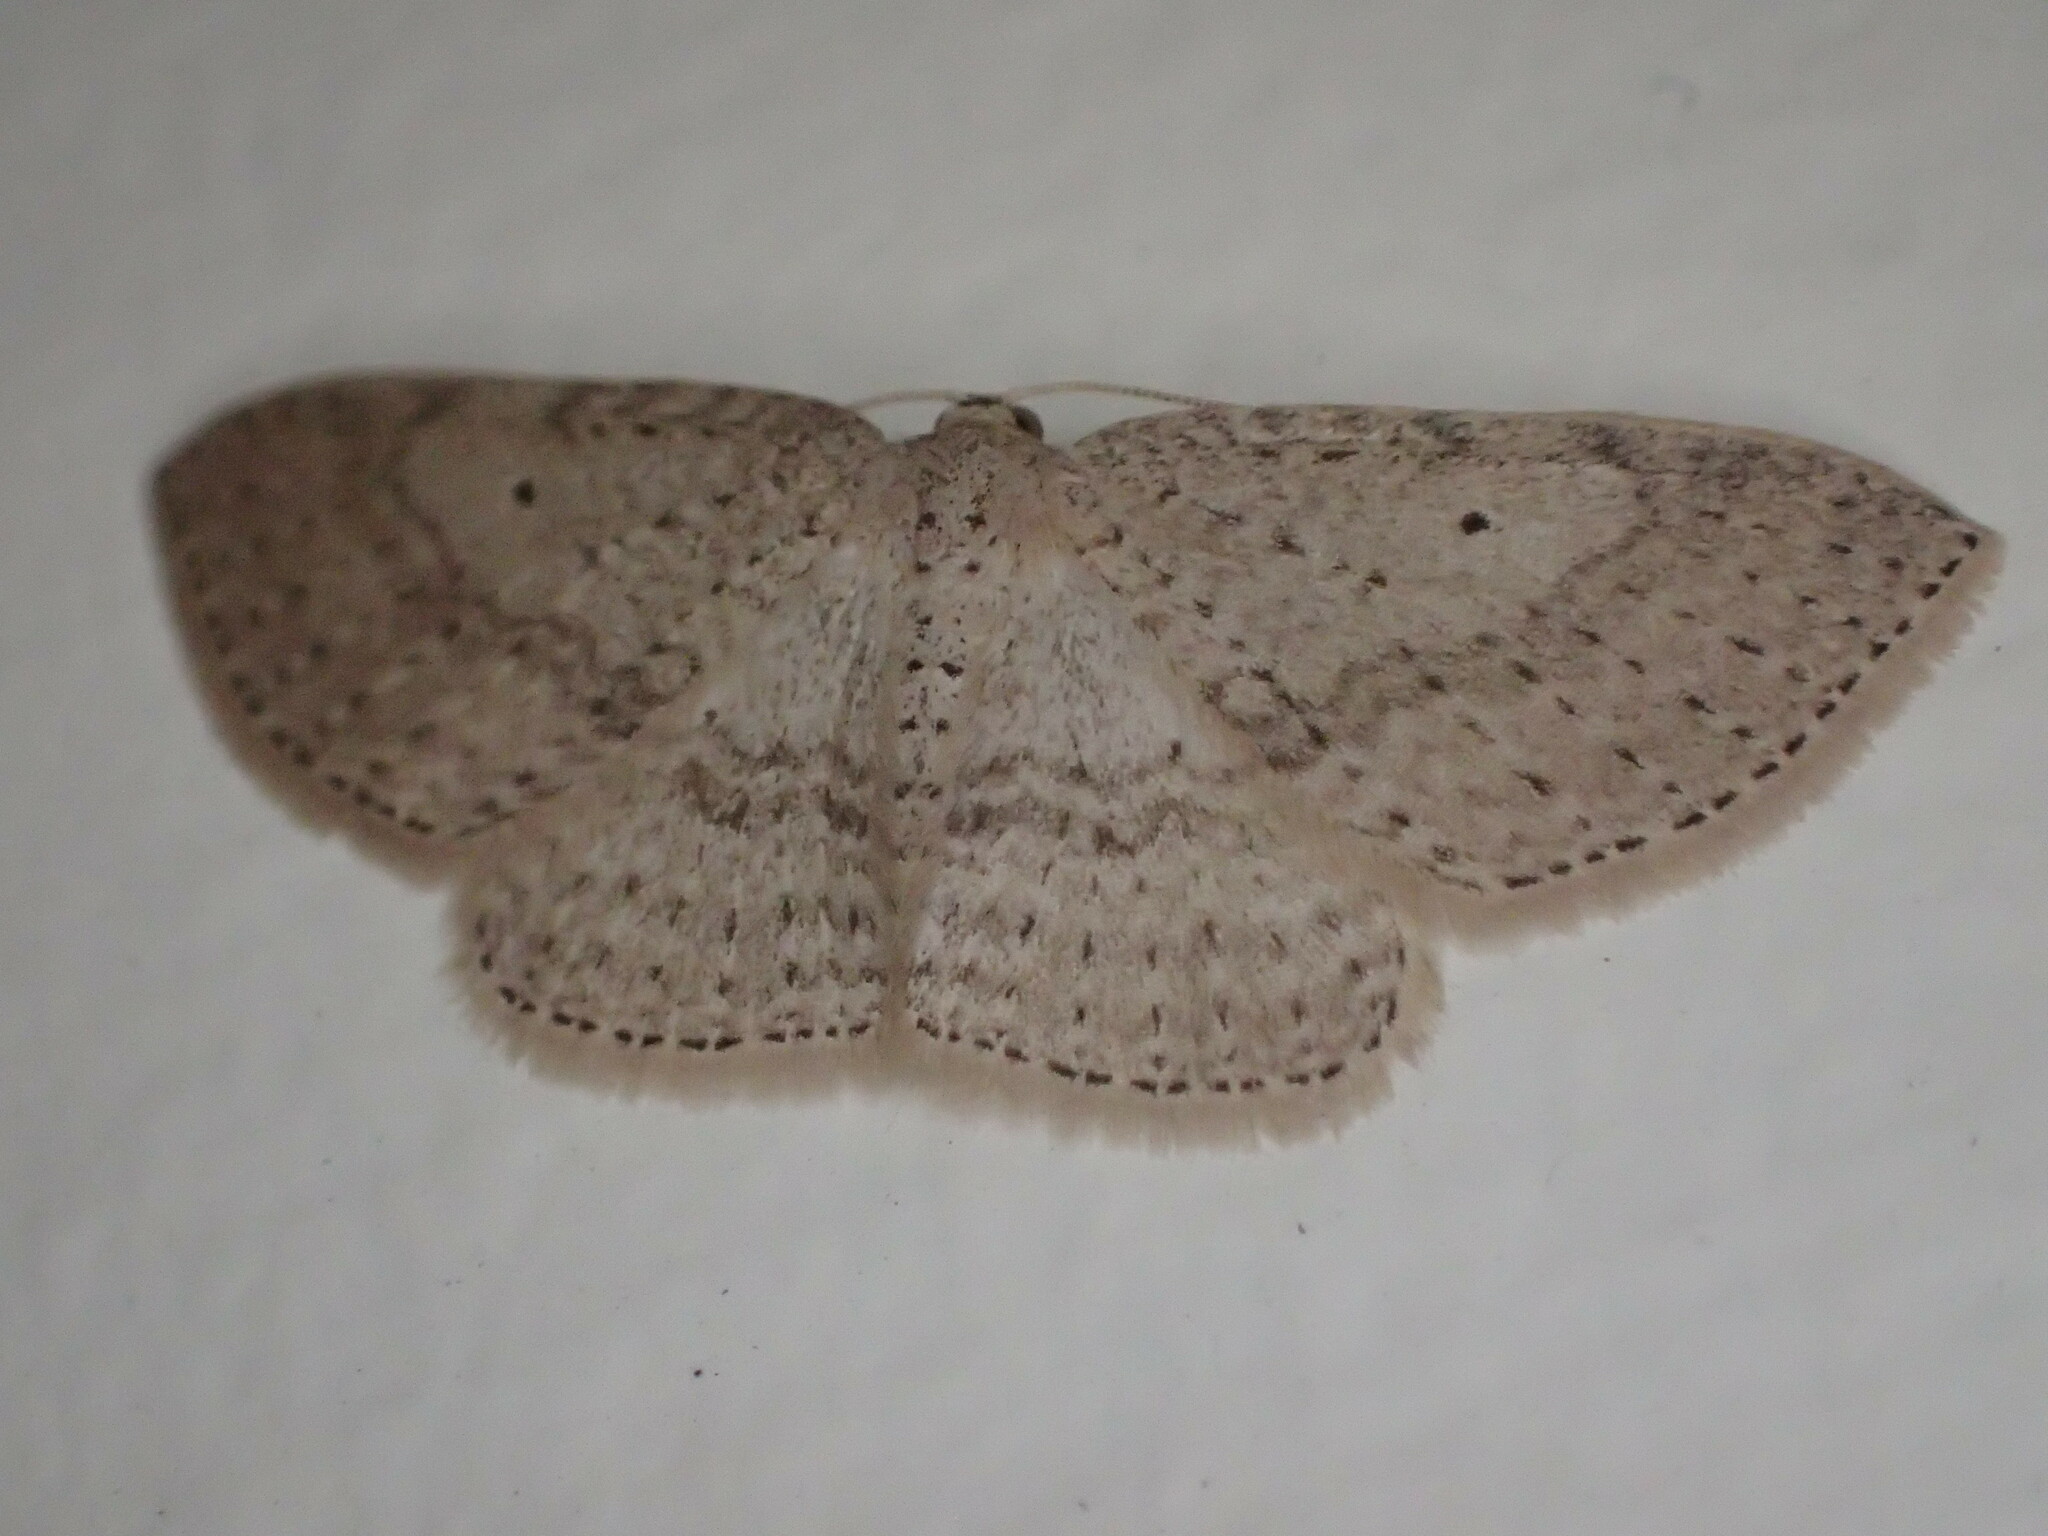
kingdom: Animalia
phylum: Arthropoda
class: Insecta
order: Lepidoptera
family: Geometridae
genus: Poecilasthena
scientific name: Poecilasthena schistaria
